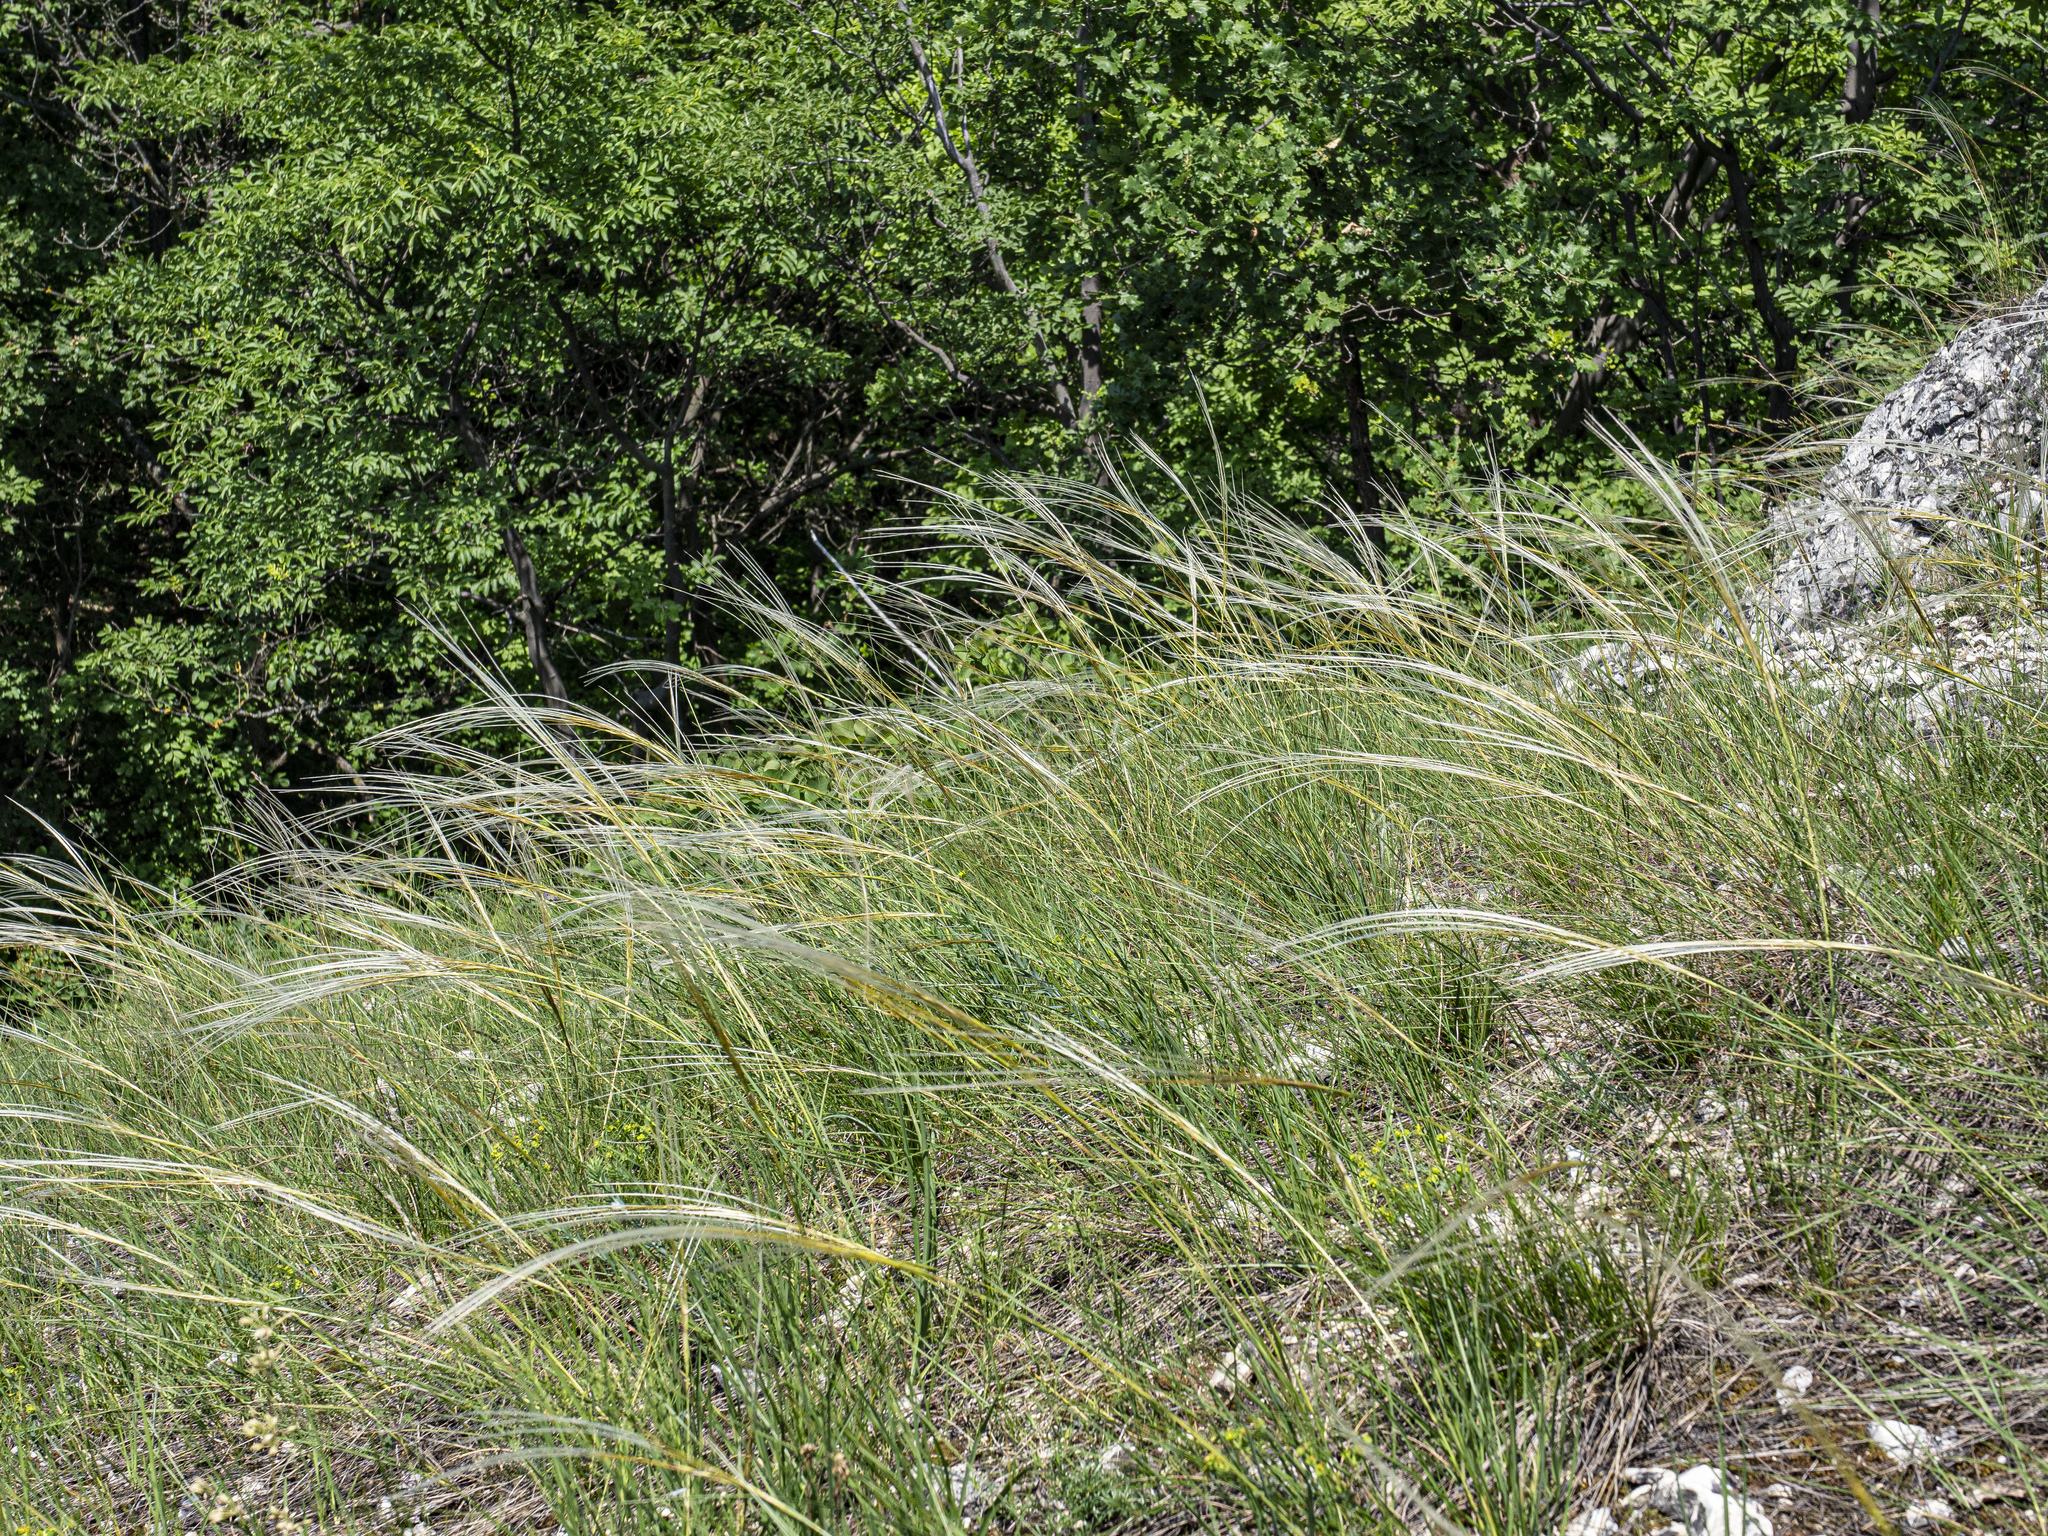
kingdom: Plantae
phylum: Tracheophyta
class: Liliopsida
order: Poales
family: Poaceae
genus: Stipa
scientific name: Stipa pennata
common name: European feather grass
